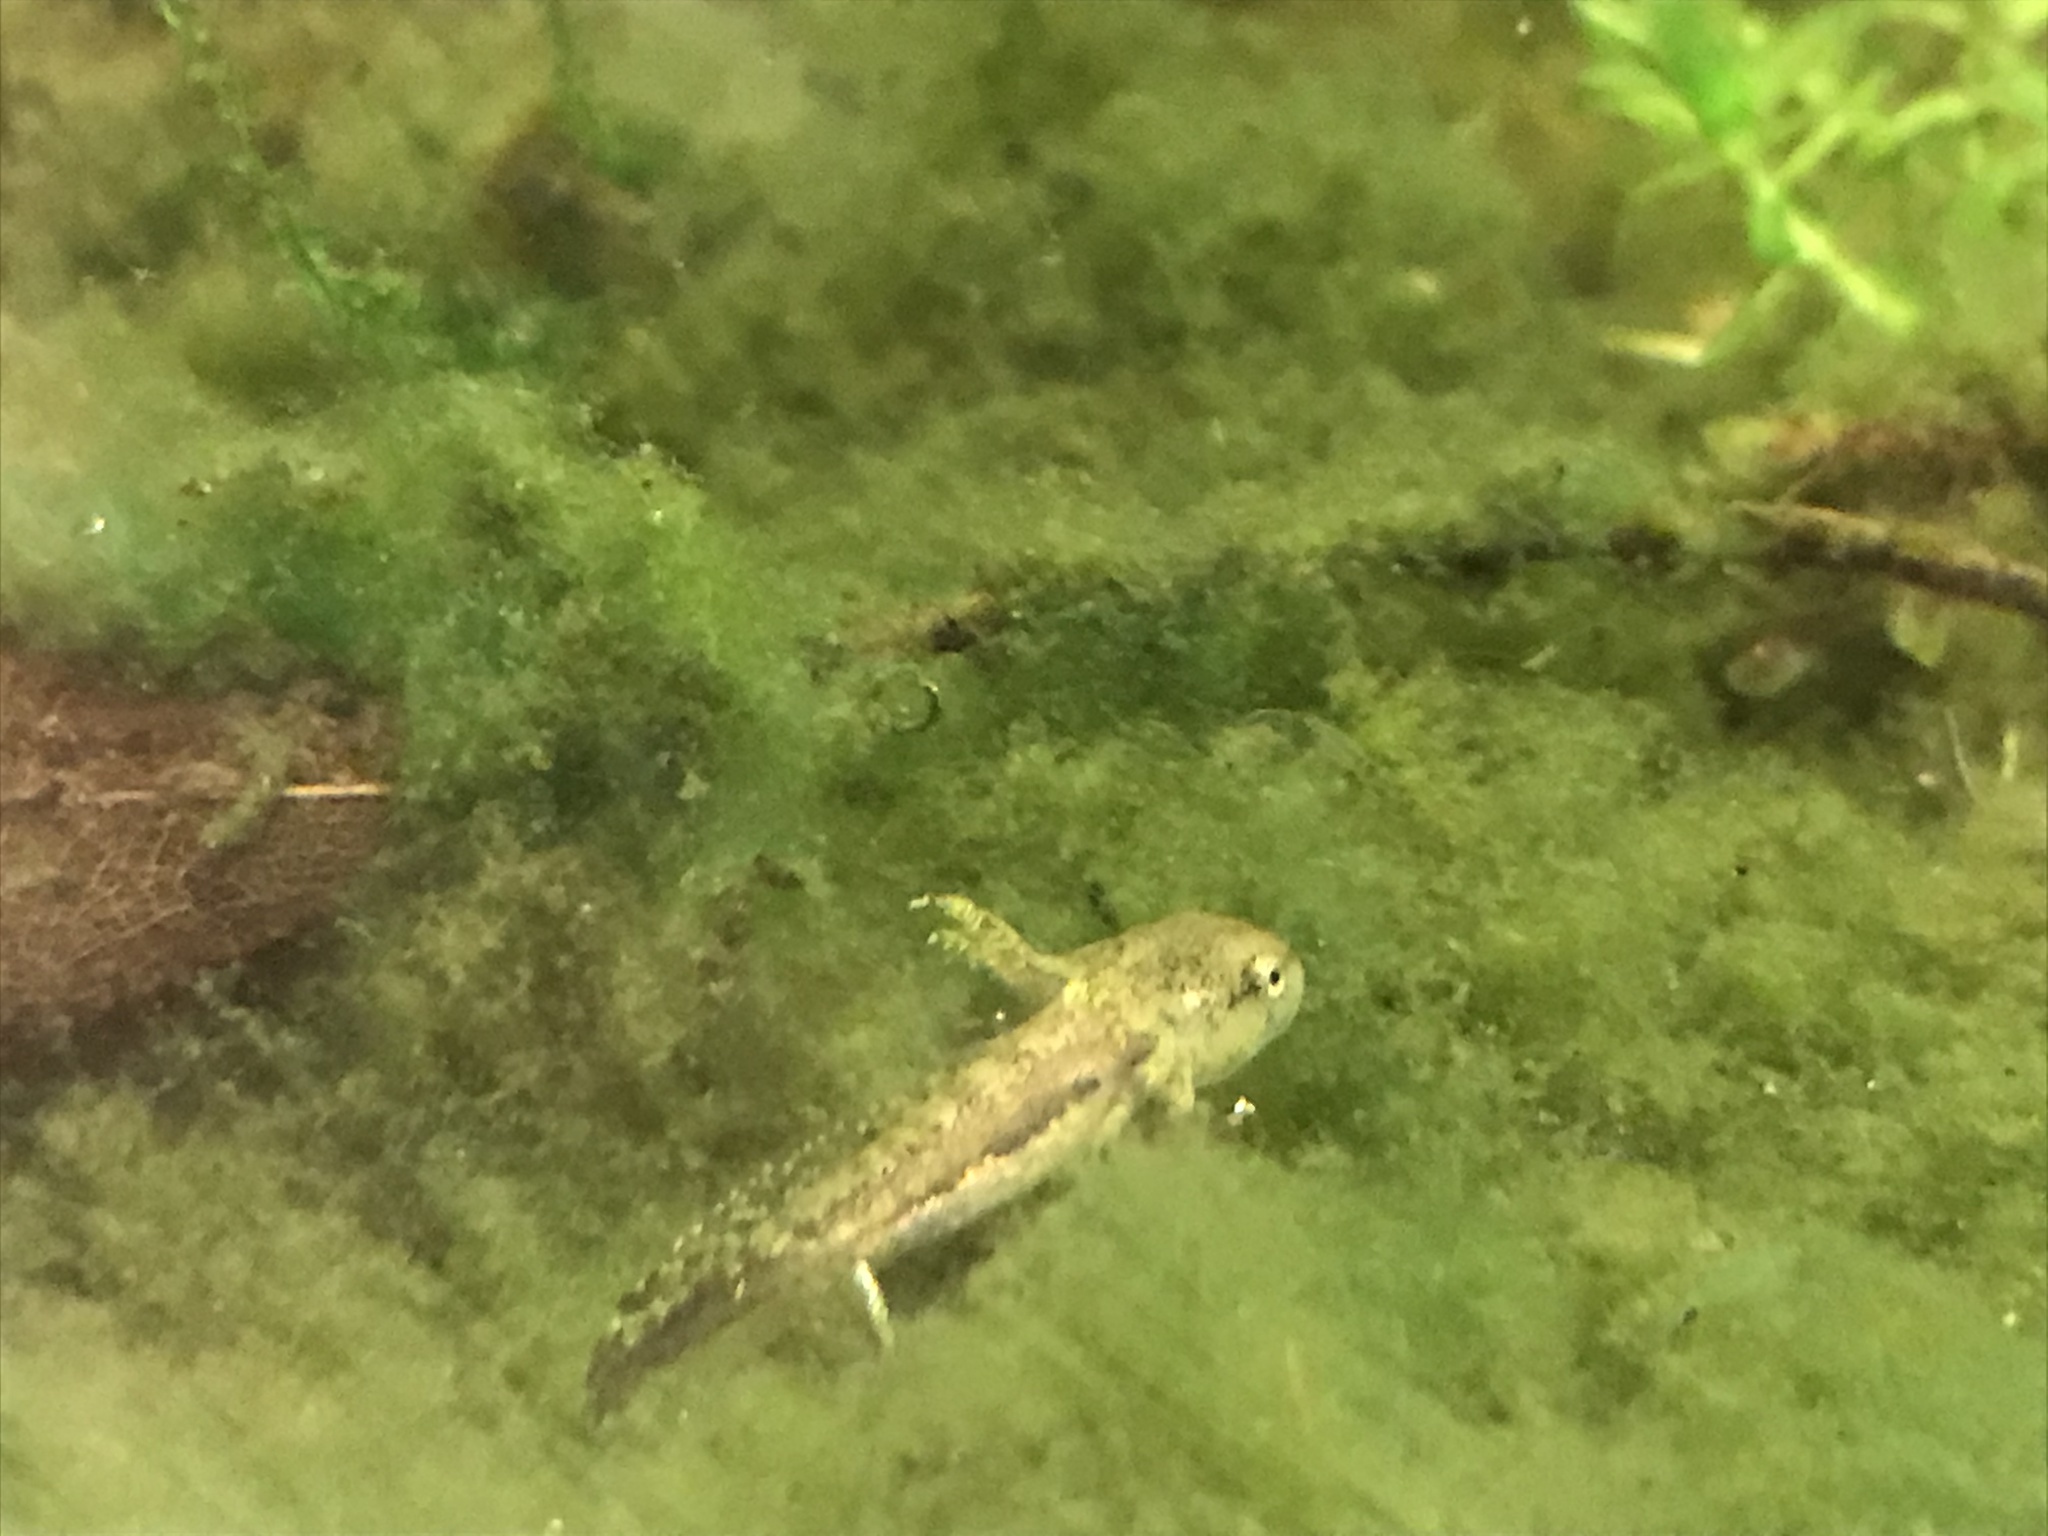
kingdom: Animalia
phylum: Chordata
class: Amphibia
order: Caudata
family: Ambystomatidae
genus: Ambystoma
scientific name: Ambystoma texanum
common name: Small-mouth salamander
